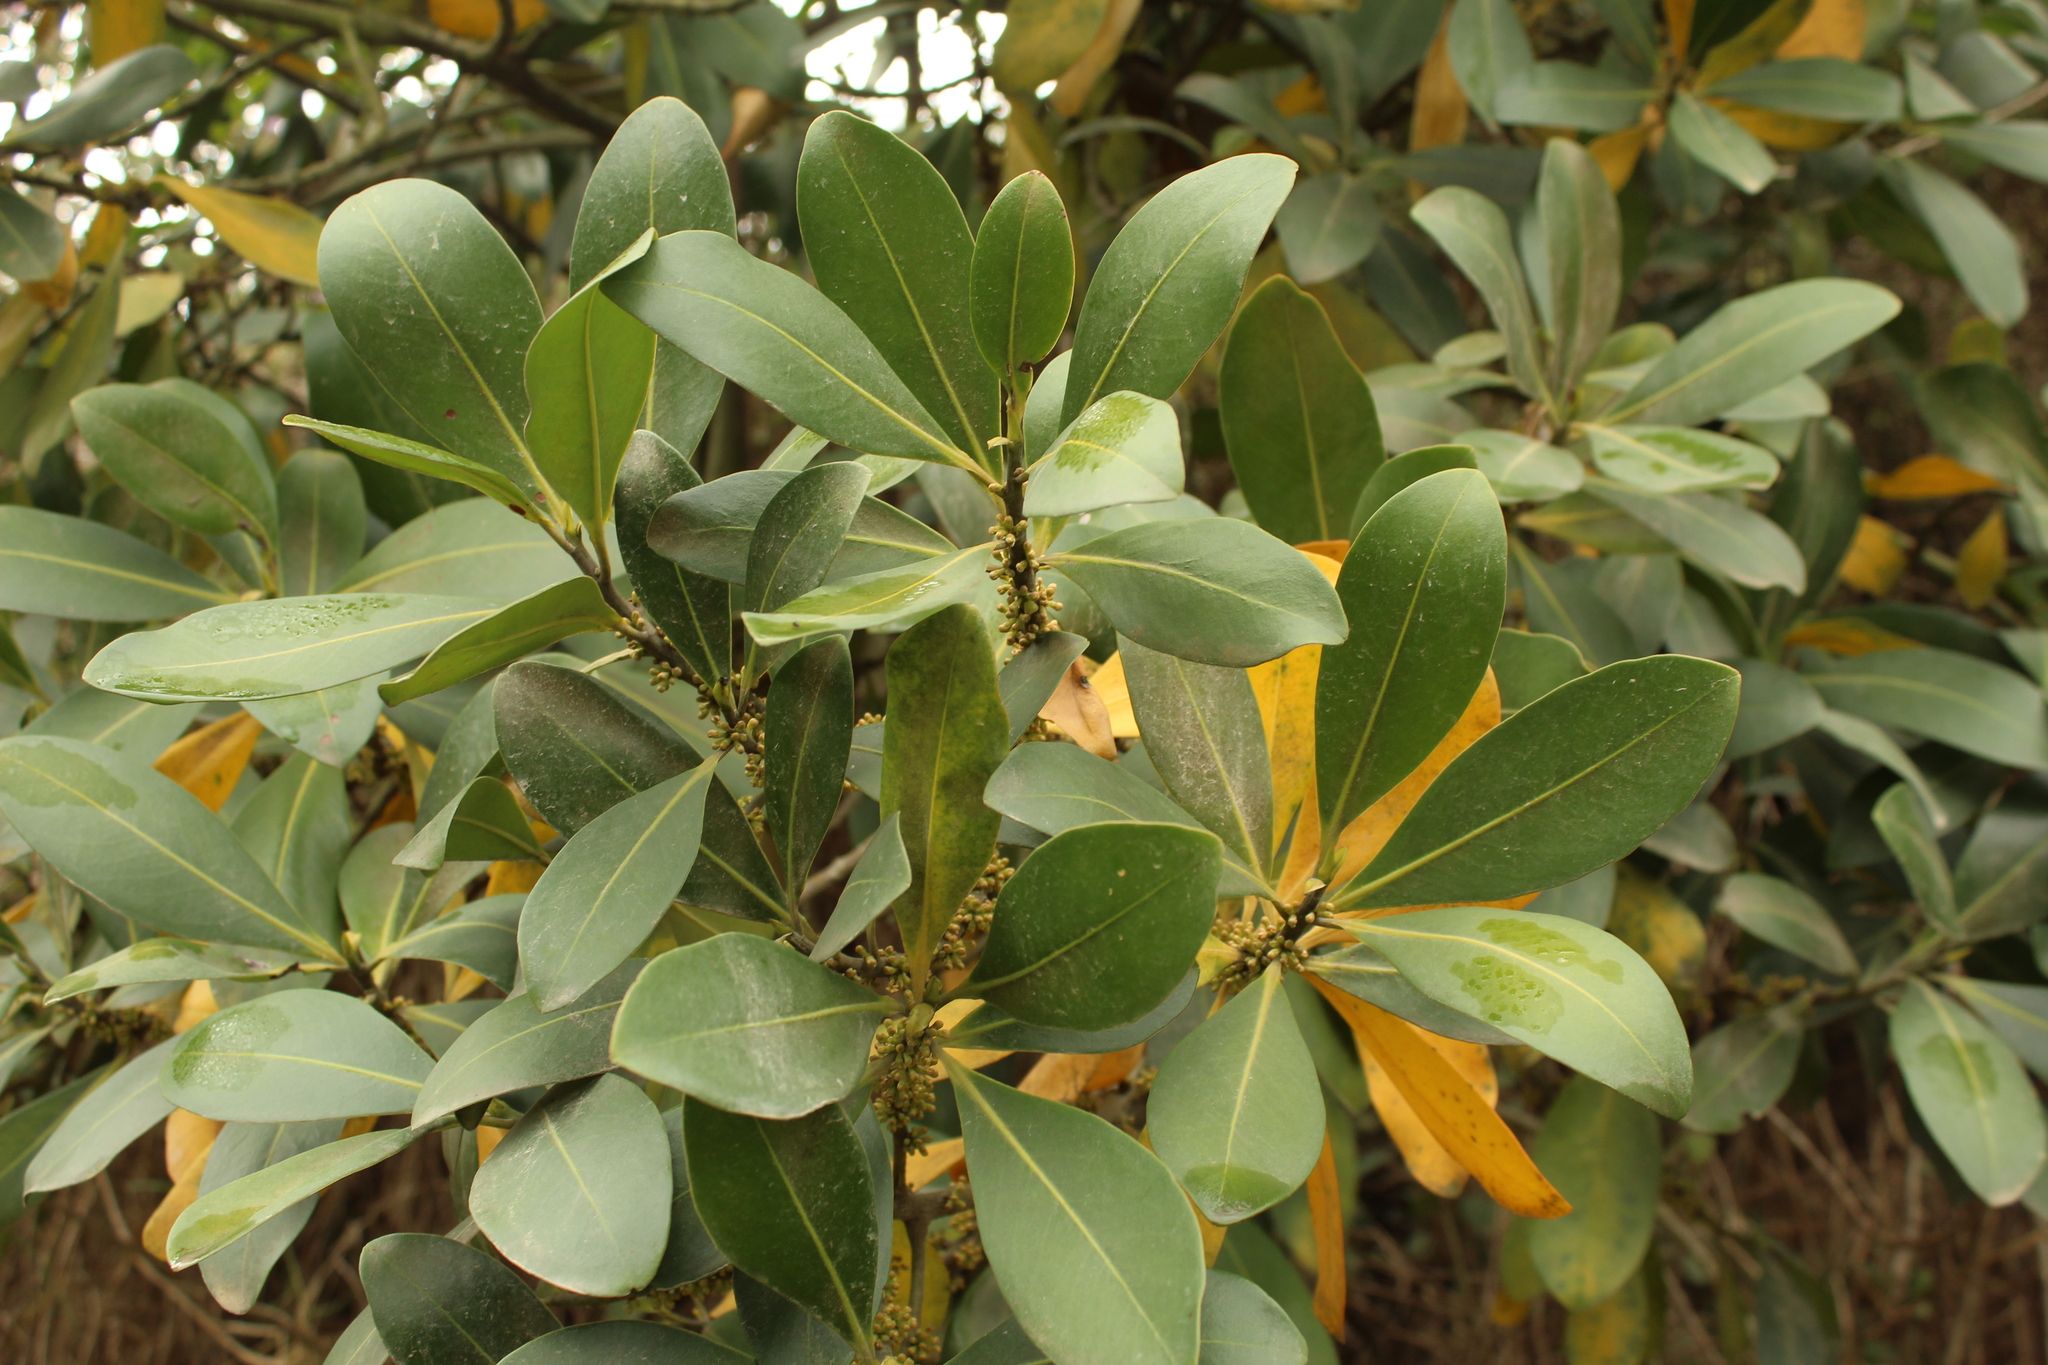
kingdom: Plantae
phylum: Tracheophyta
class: Magnoliopsida
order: Ericales
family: Primulaceae
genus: Myrsine
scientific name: Myrsine guianensis
